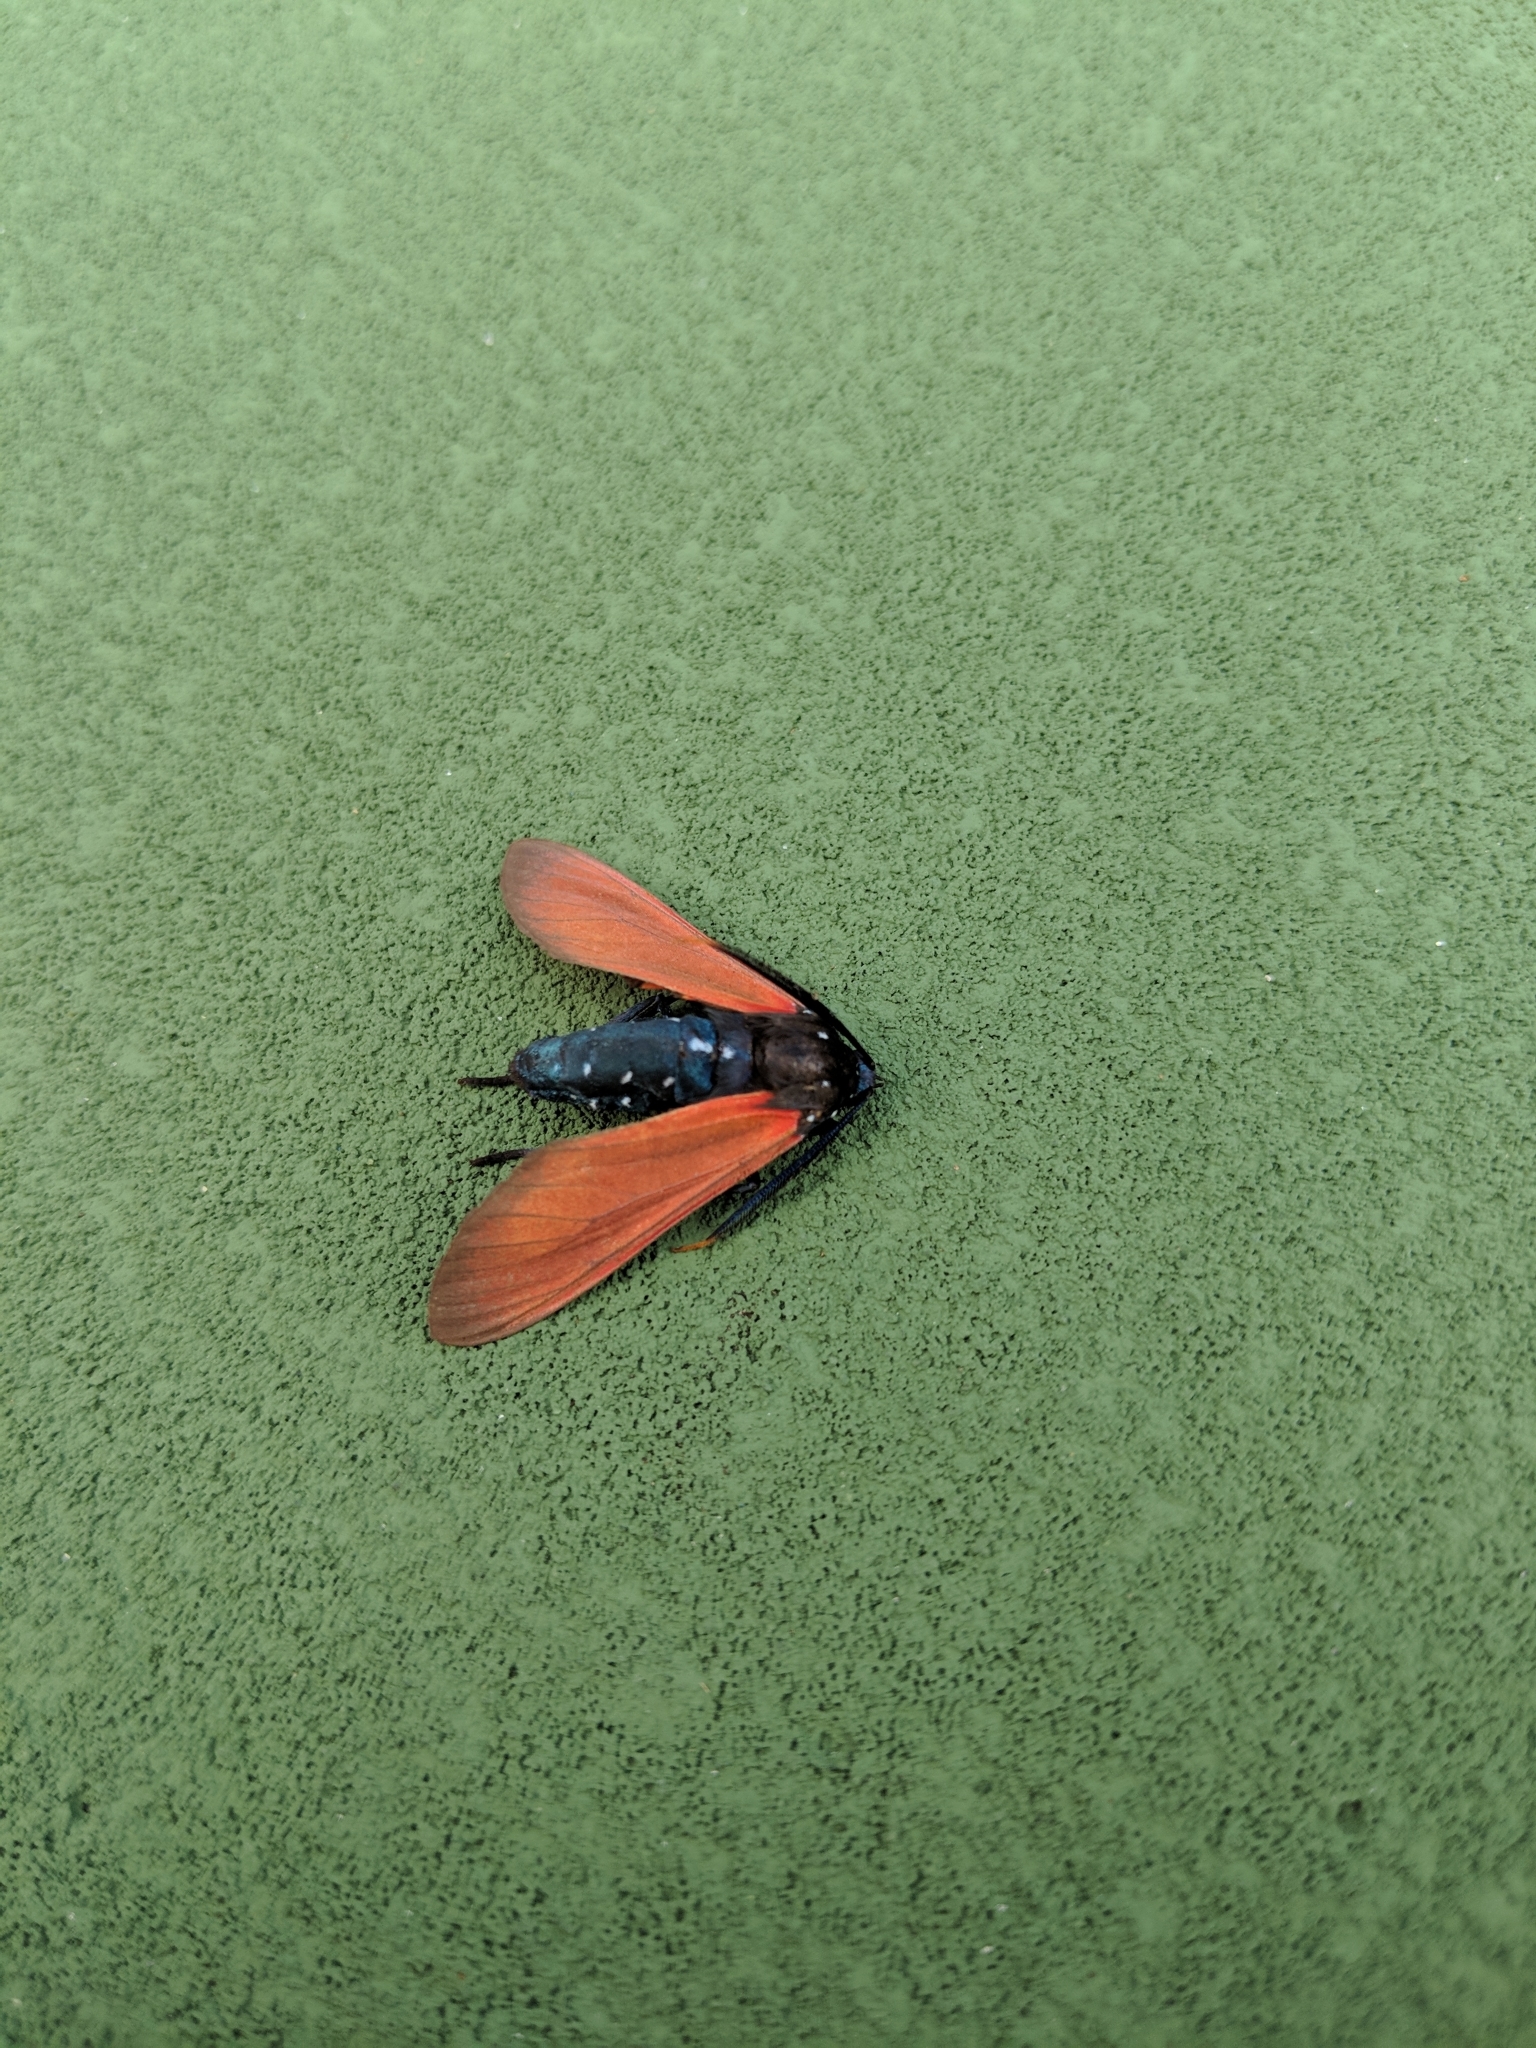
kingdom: Animalia
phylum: Arthropoda
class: Insecta
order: Lepidoptera
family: Erebidae
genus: Empyreuma
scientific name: Empyreuma pugione
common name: Spotted oleander caterpillar moth
